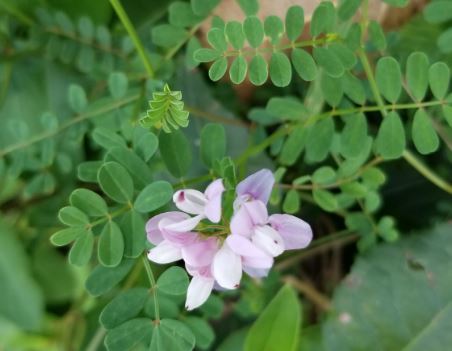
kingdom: Plantae
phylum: Tracheophyta
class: Magnoliopsida
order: Fabales
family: Fabaceae
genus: Coronilla
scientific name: Coronilla varia
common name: Crownvetch
